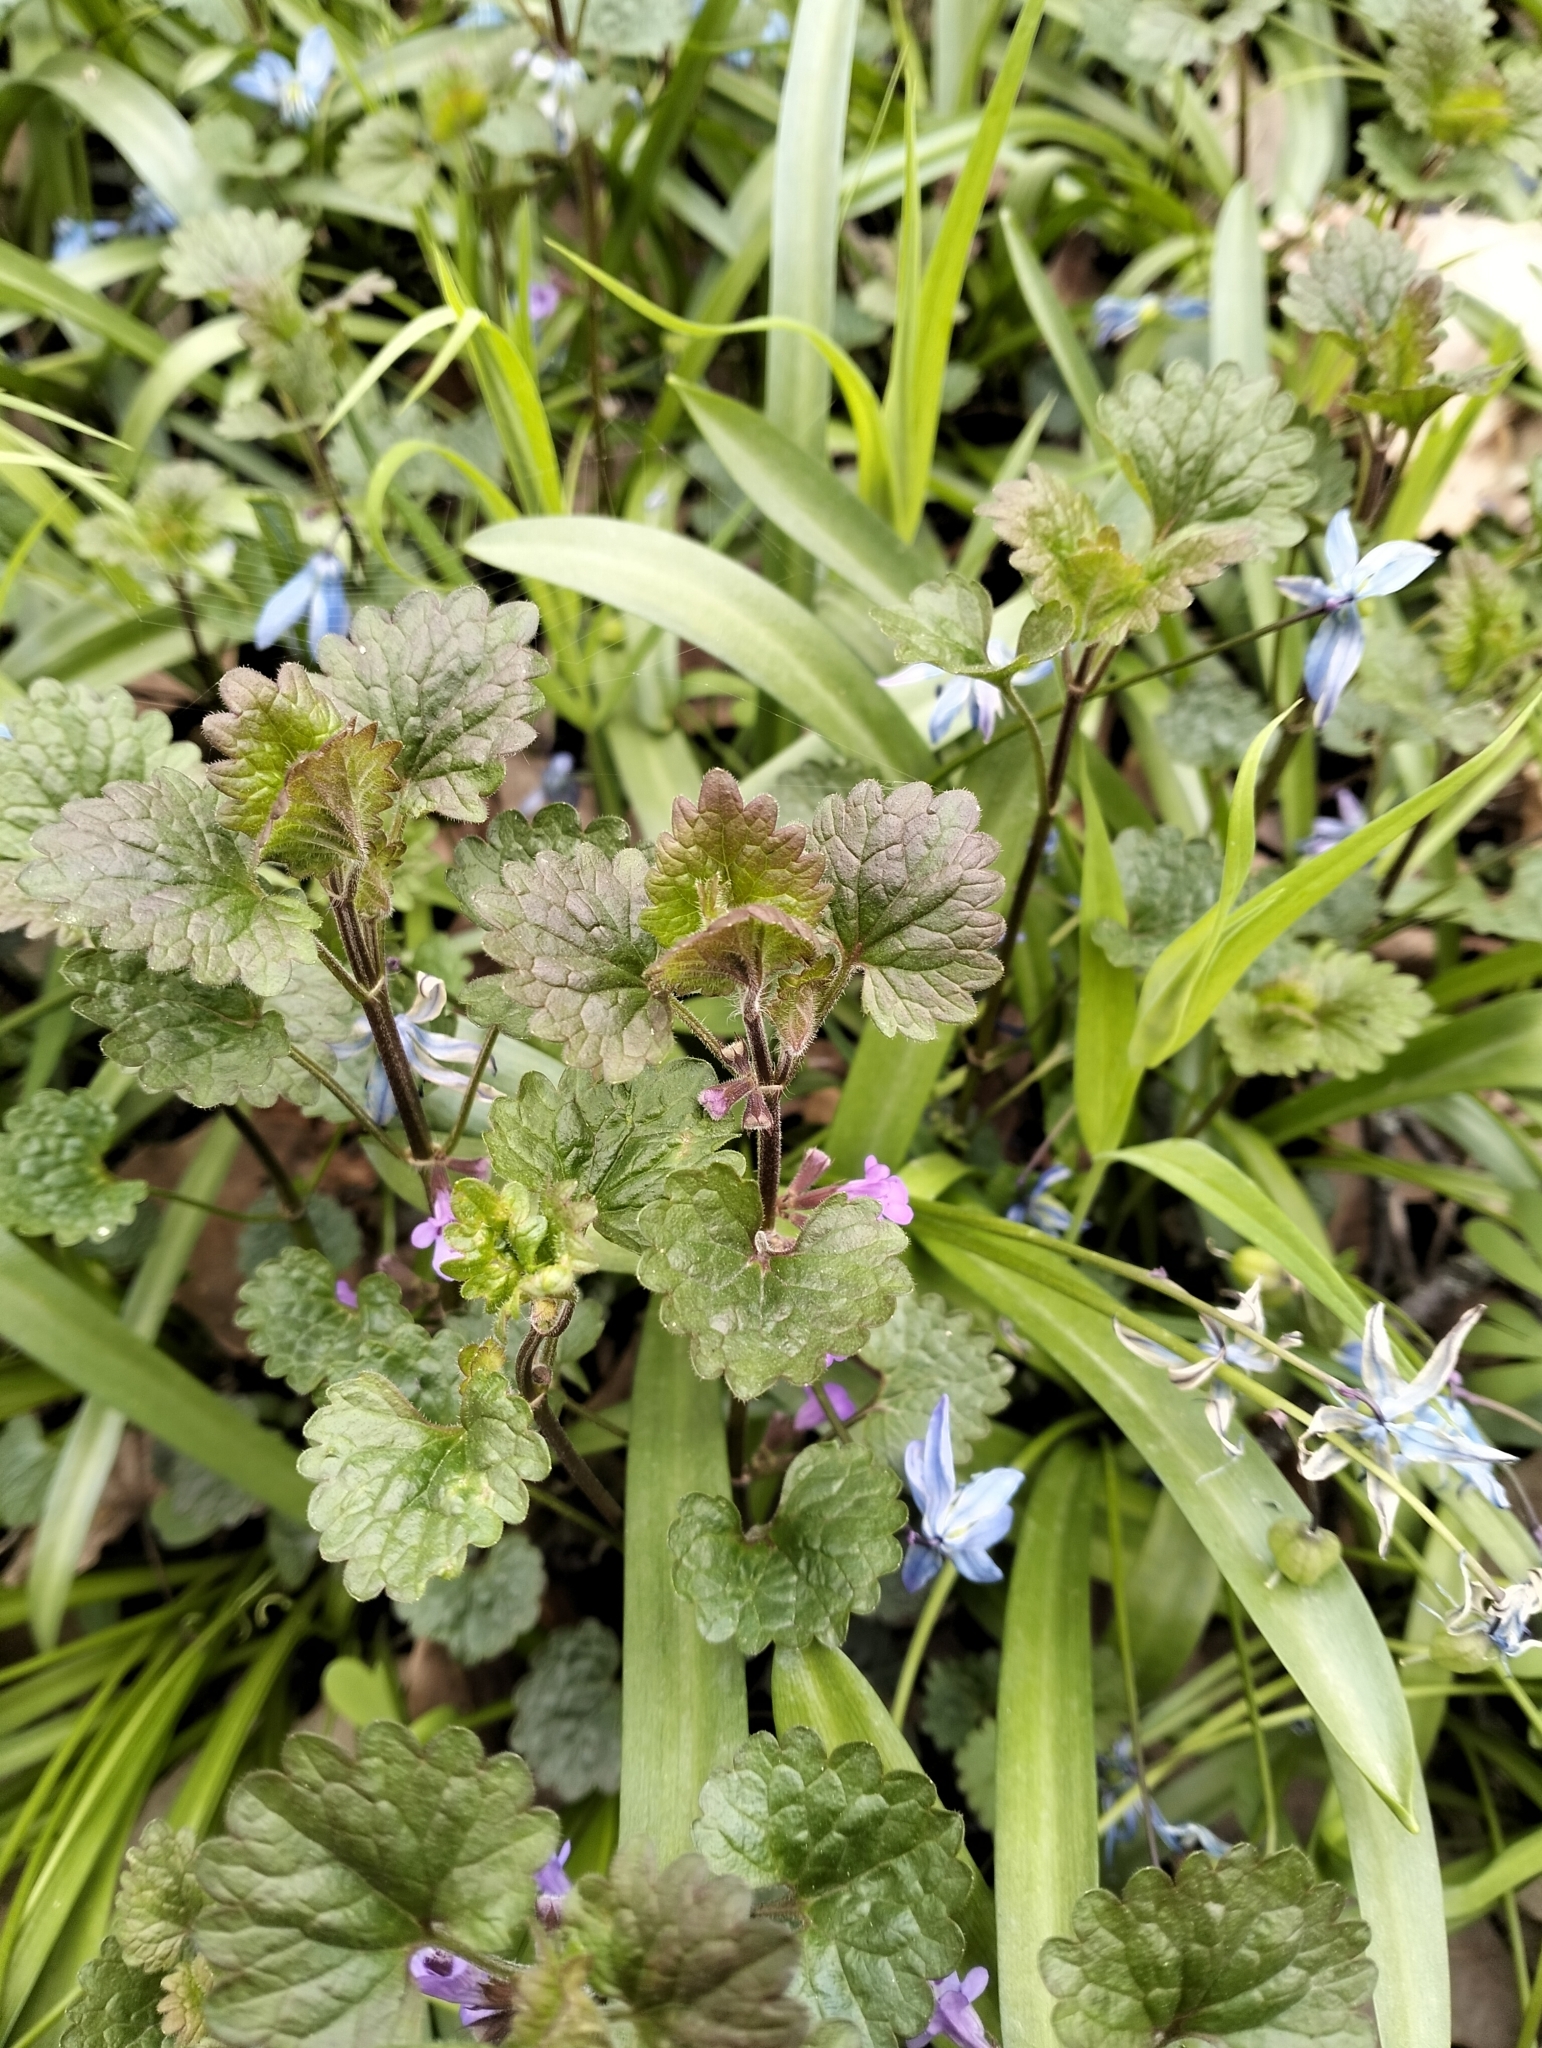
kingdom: Plantae
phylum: Tracheophyta
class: Magnoliopsida
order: Lamiales
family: Lamiaceae
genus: Glechoma
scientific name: Glechoma hederacea
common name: Ground ivy
